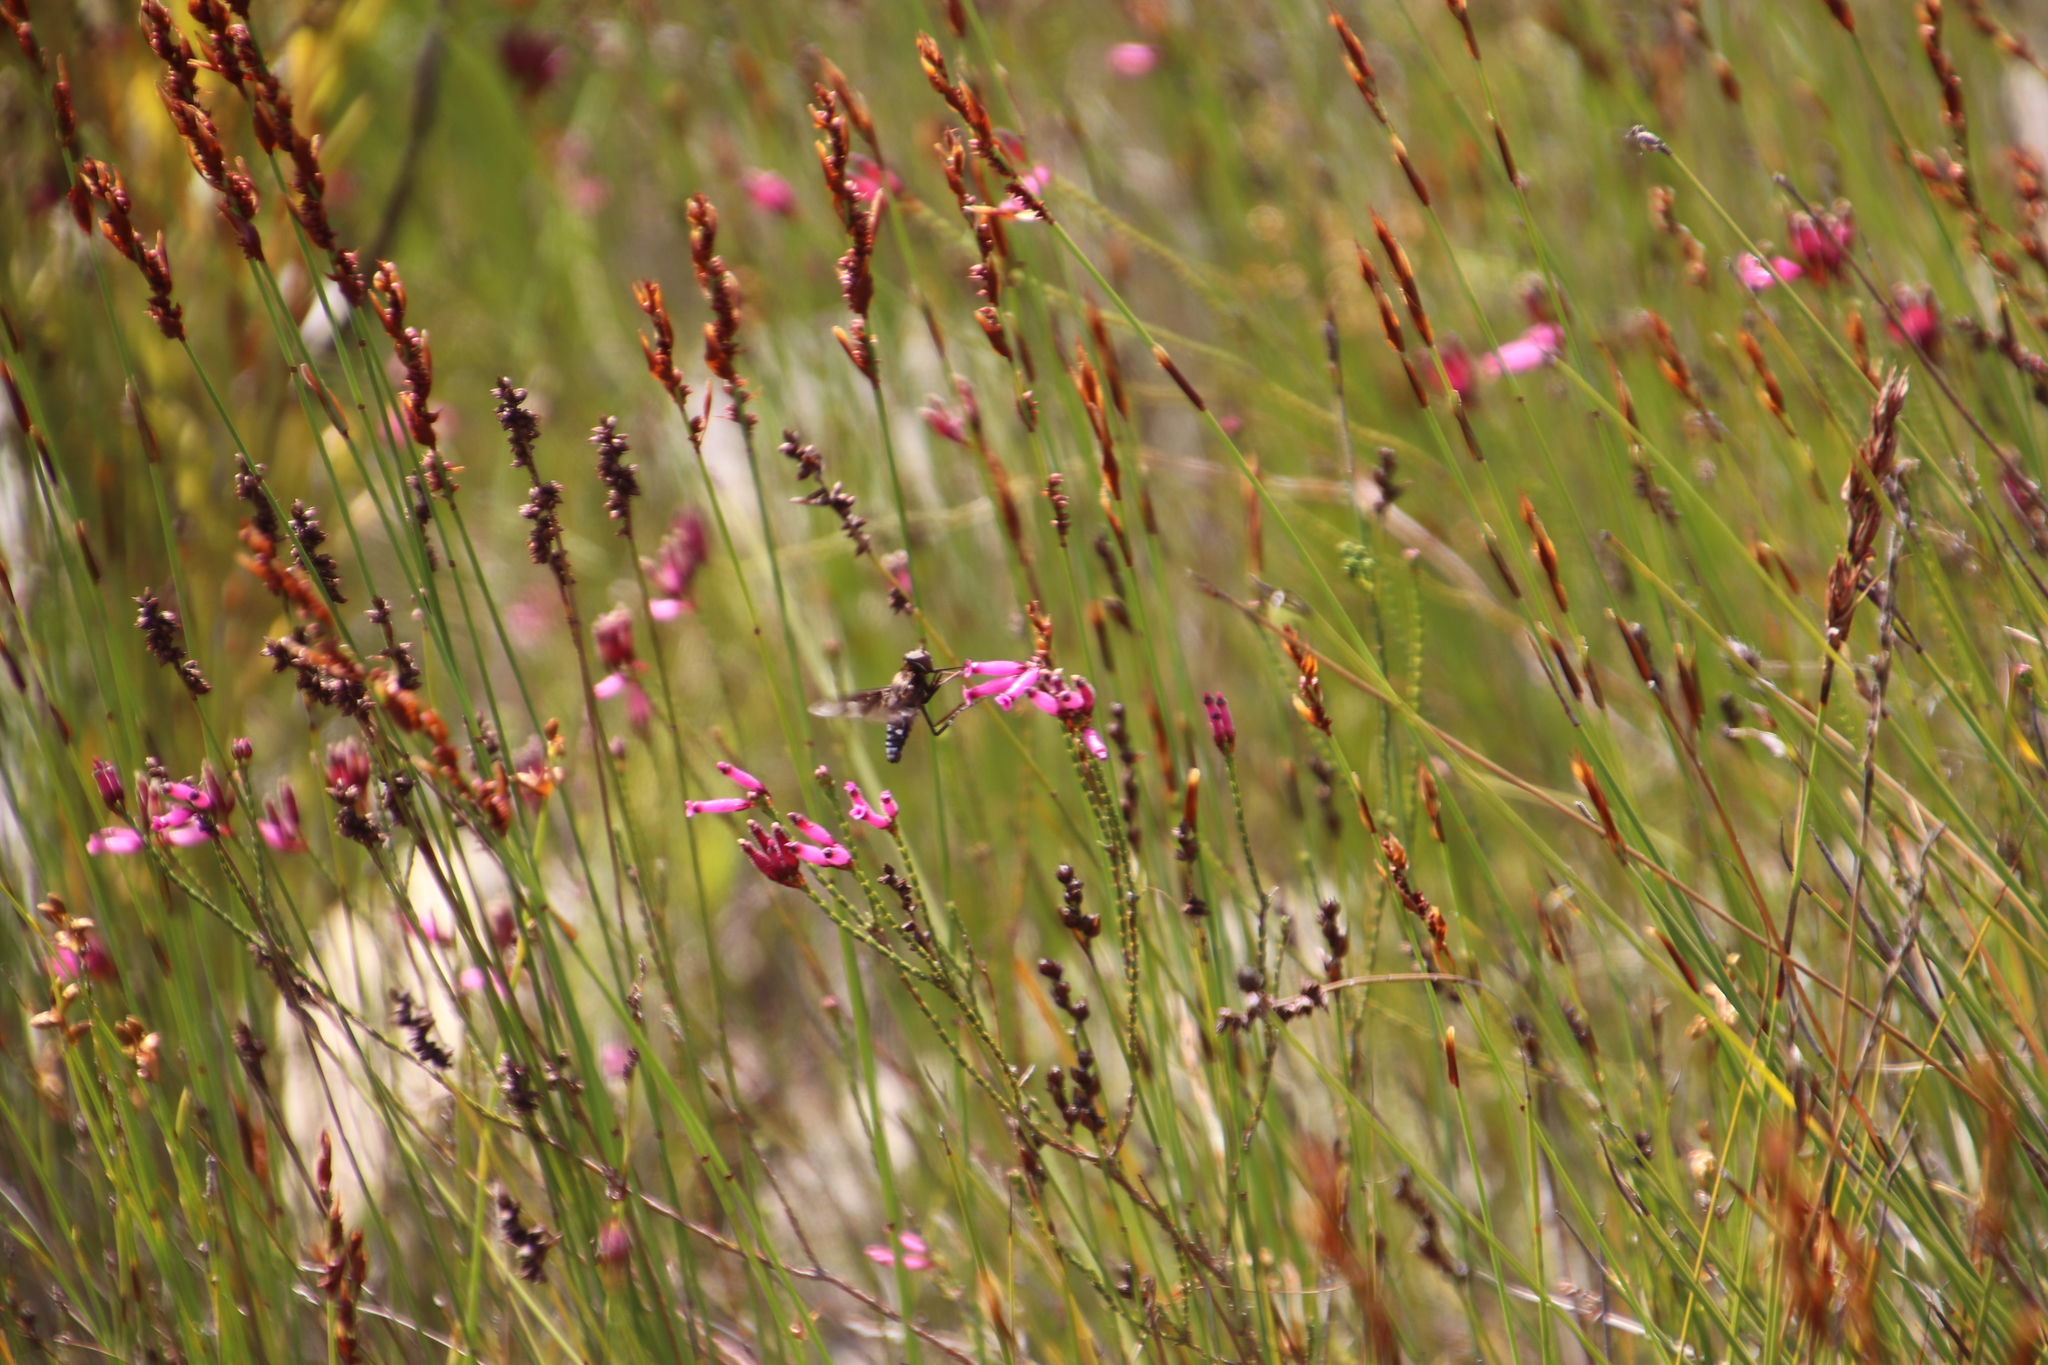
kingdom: Plantae
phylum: Tracheophyta
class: Magnoliopsida
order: Ericales
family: Ericaceae
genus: Erica
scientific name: Erica cristata
